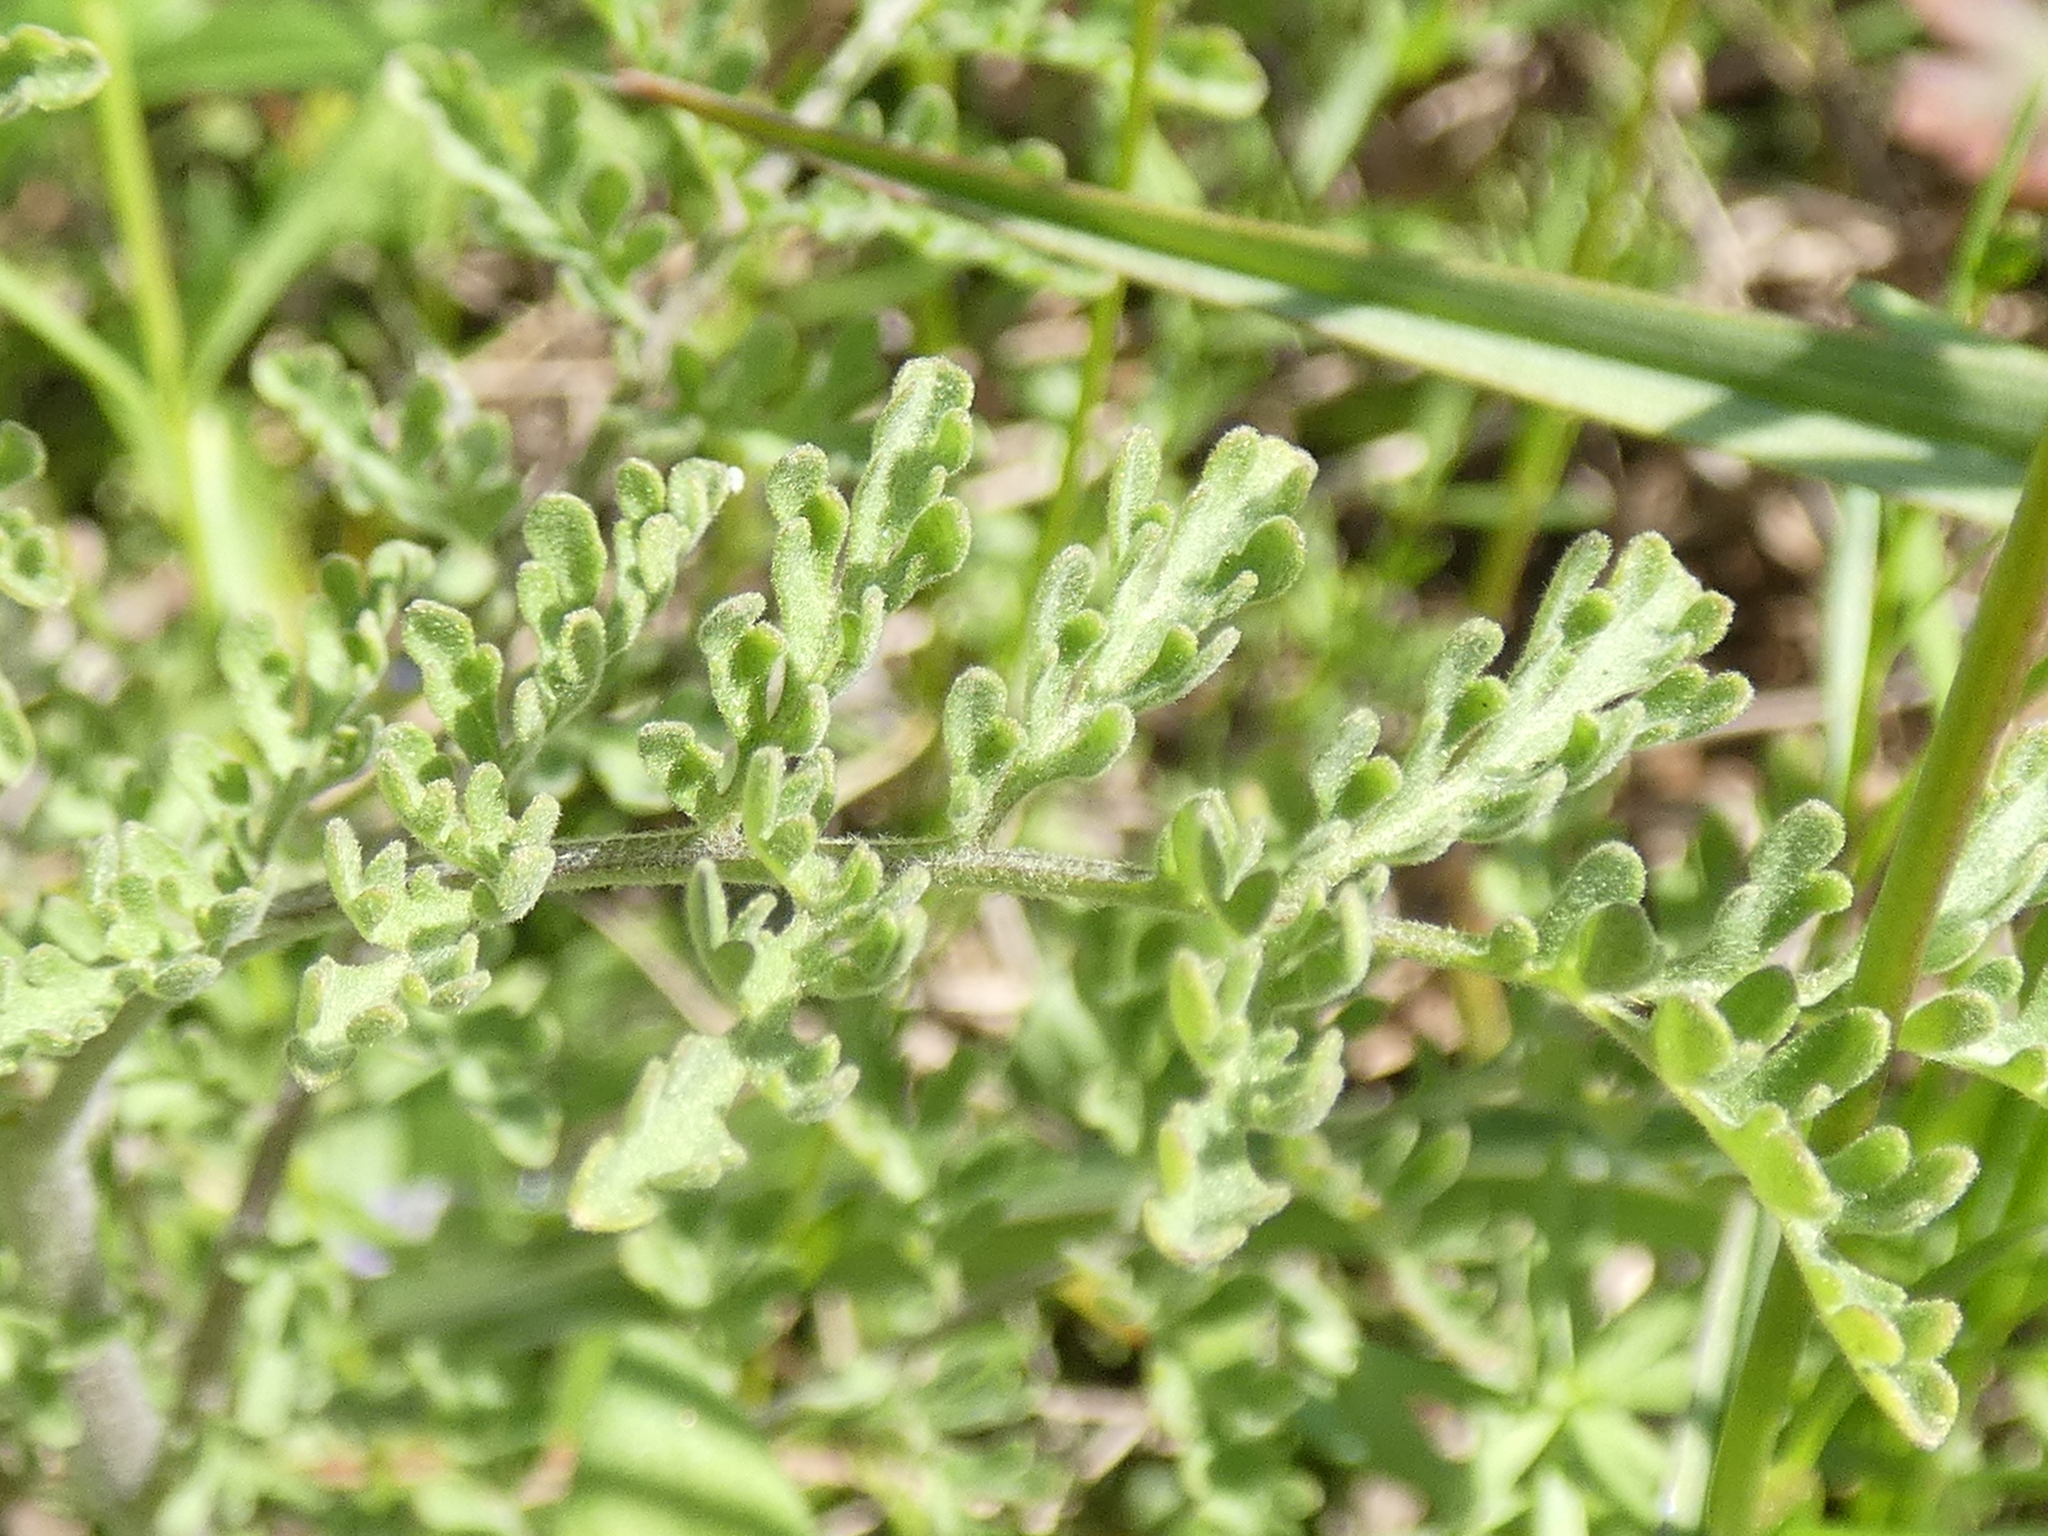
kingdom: Plantae
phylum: Tracheophyta
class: Magnoliopsida
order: Brassicales
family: Brassicaceae
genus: Descurainia
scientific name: Descurainia pinnata
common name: Western tansy mustard
